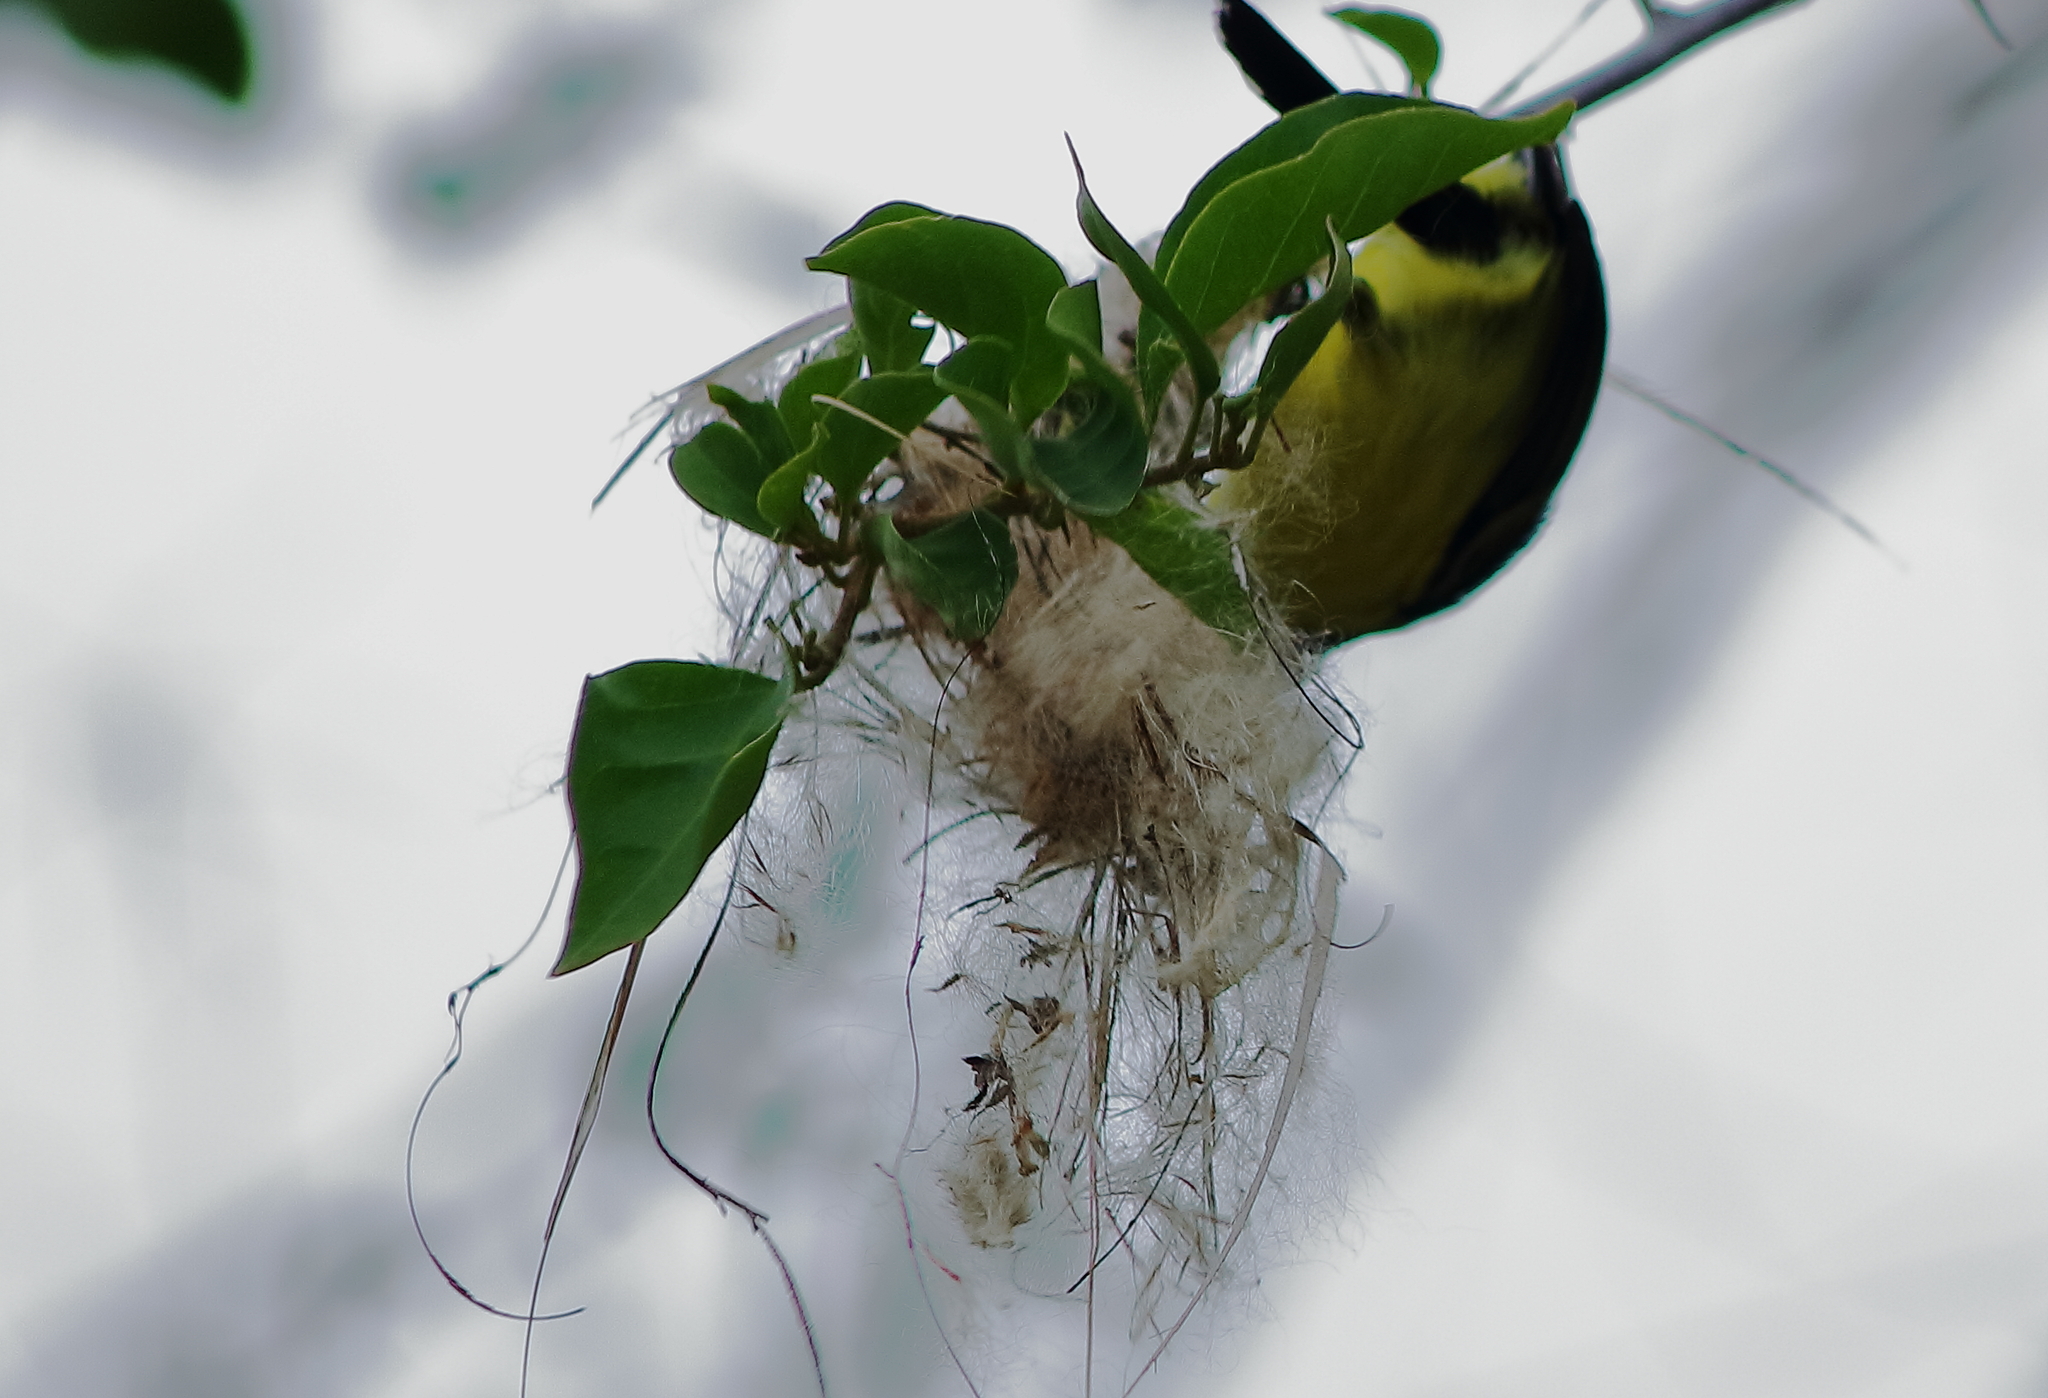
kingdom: Animalia
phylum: Chordata
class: Aves
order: Passeriformes
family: Tyrannidae
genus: Todirostrum
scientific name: Todirostrum cinereum
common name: Common tody-flycatcher
